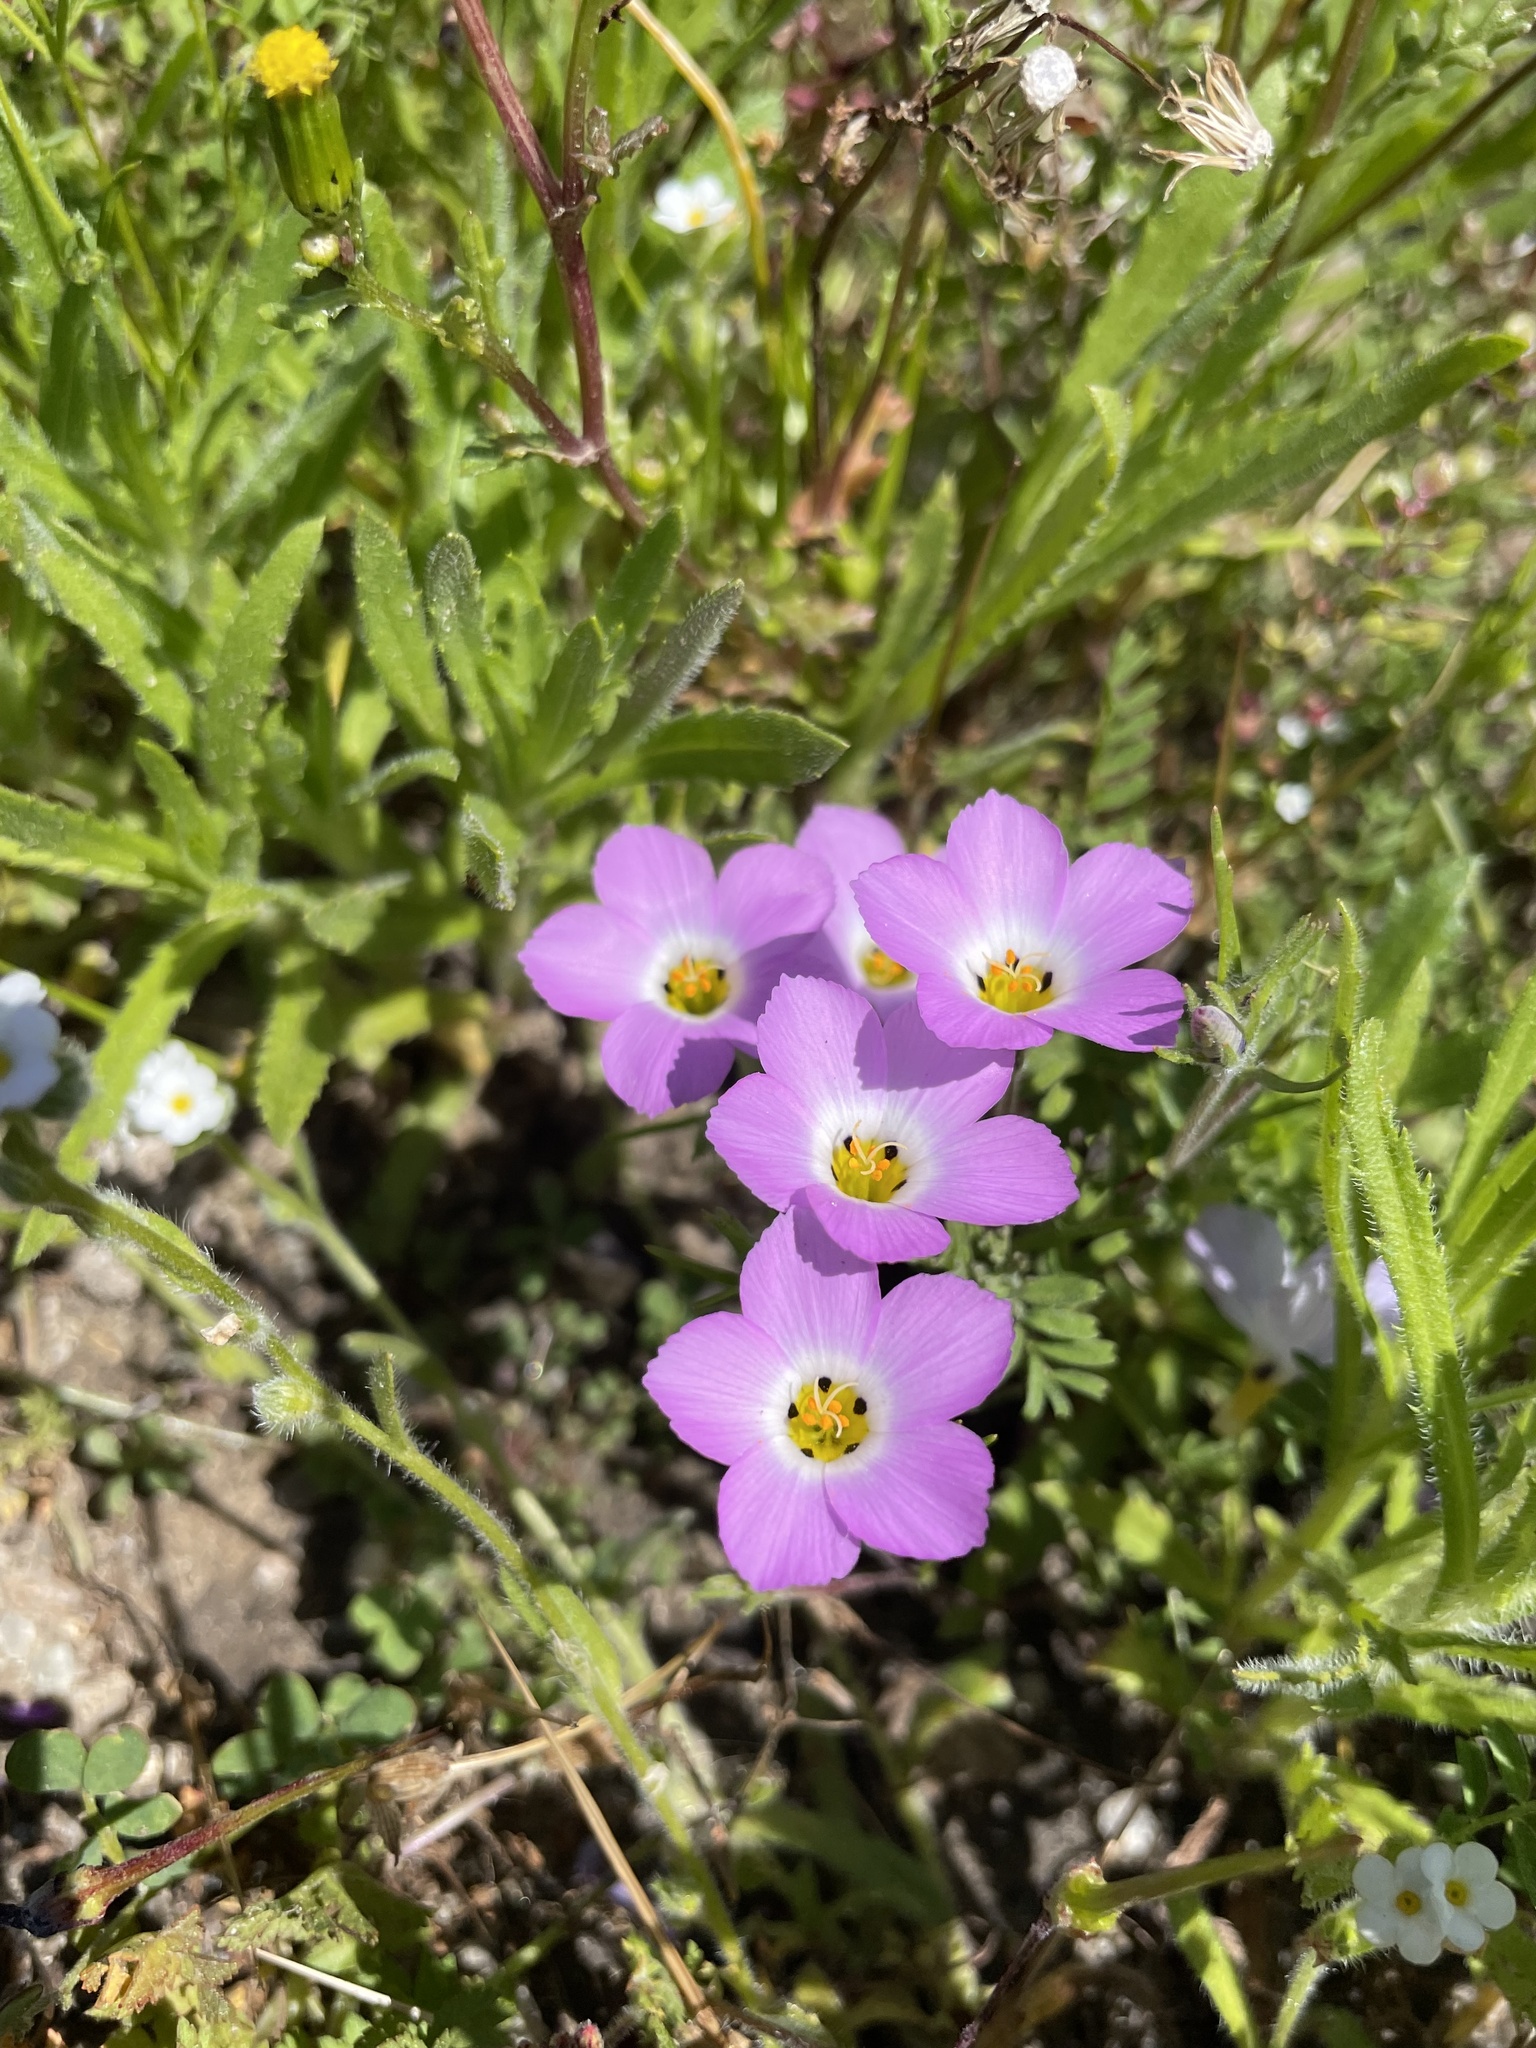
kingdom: Plantae
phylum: Tracheophyta
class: Magnoliopsida
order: Ericales
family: Polemoniaceae
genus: Linanthus
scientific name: Linanthus dianthiflorus
